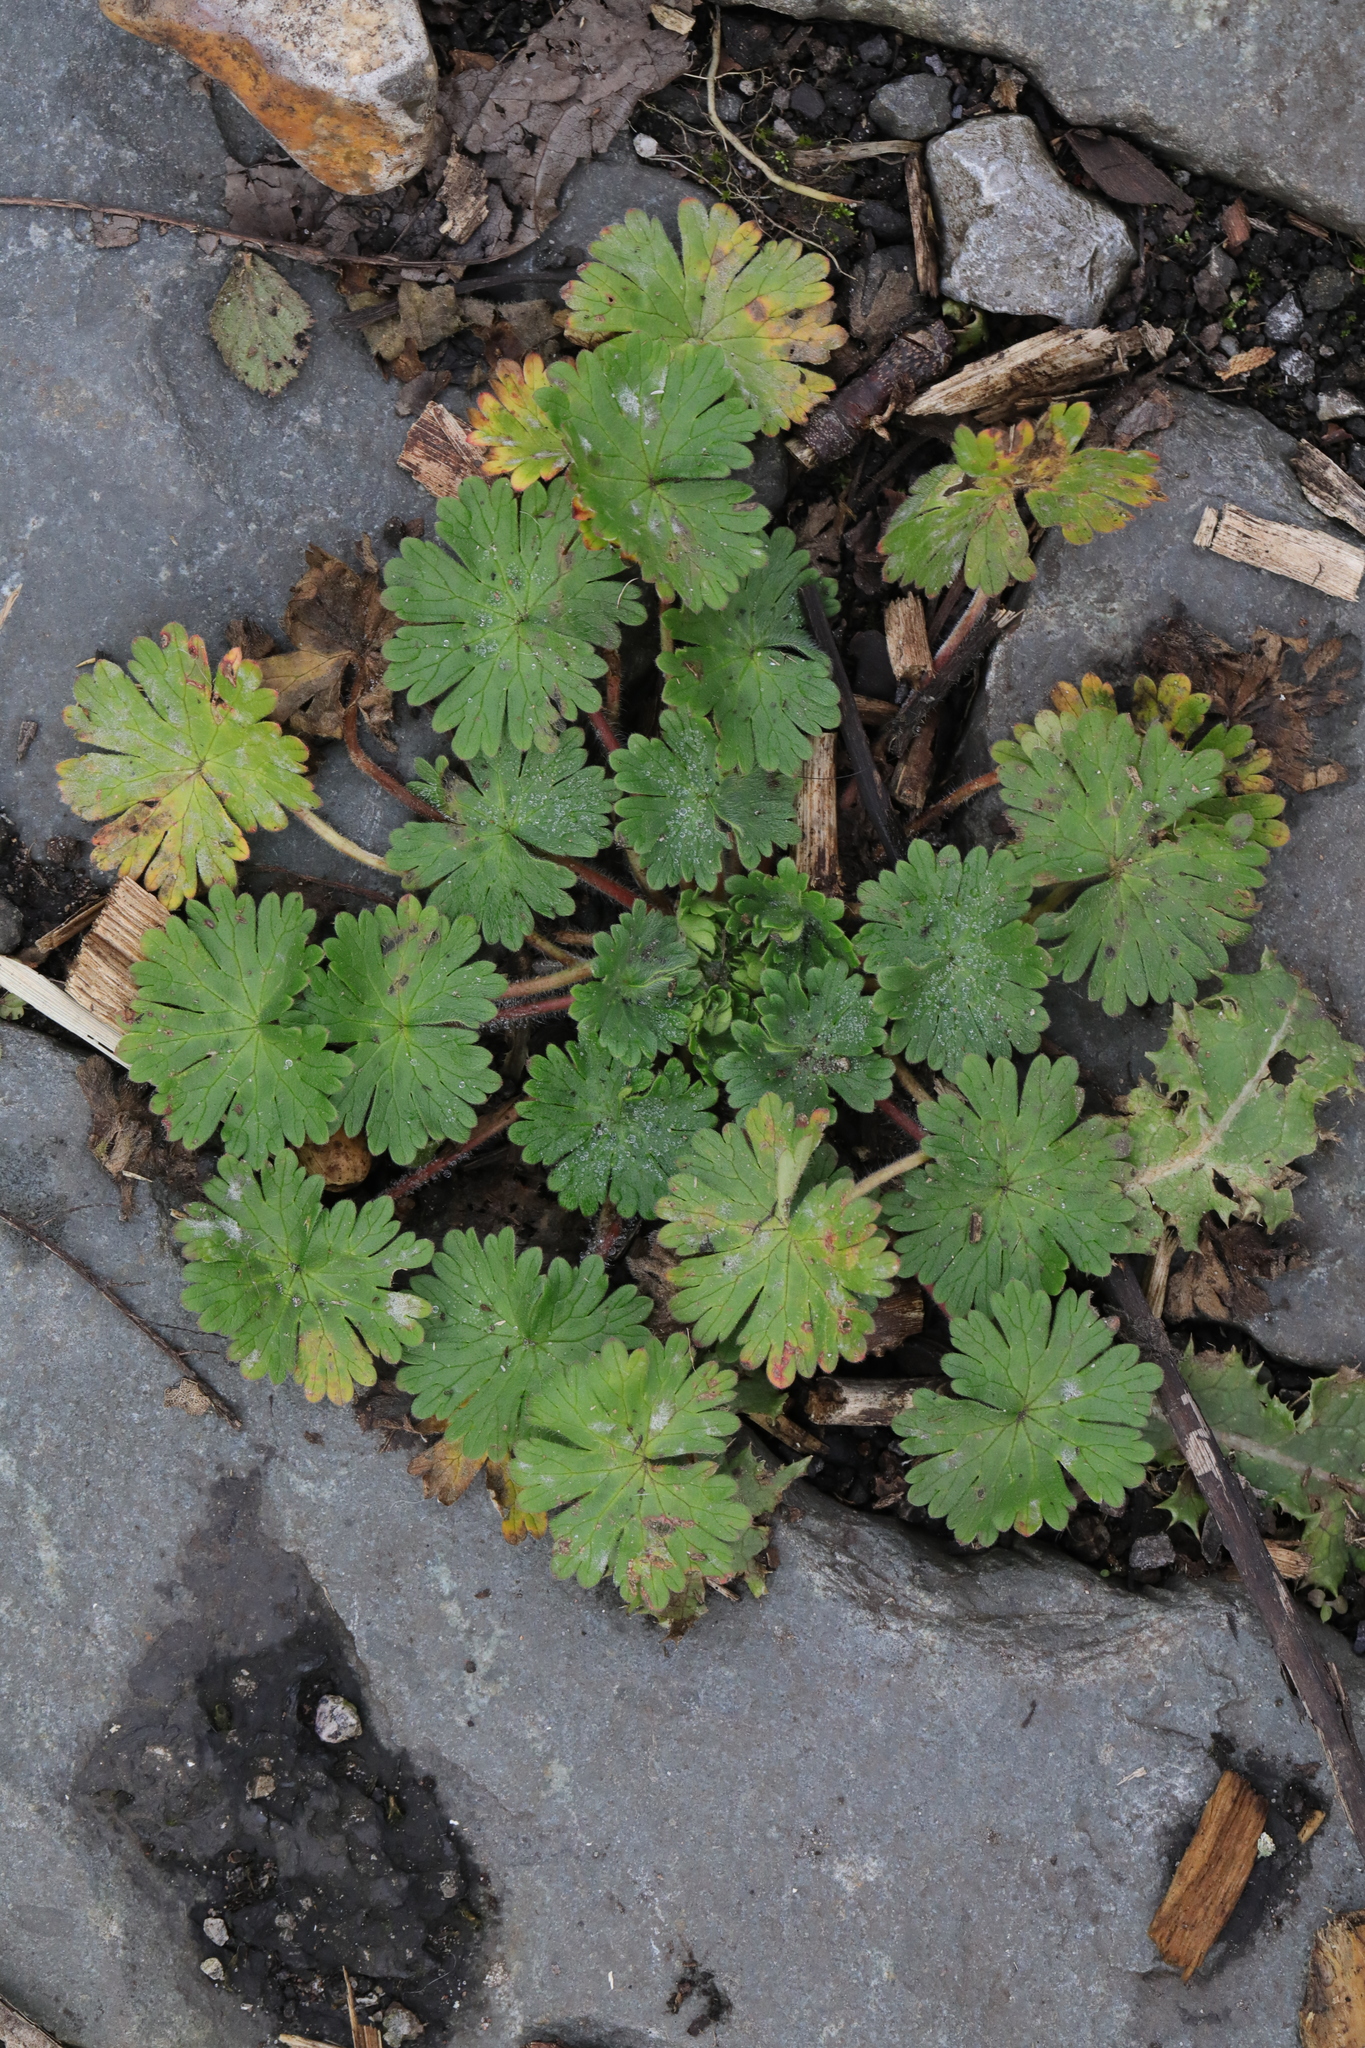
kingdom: Plantae
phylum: Tracheophyta
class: Magnoliopsida
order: Geraniales
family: Geraniaceae
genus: Geranium
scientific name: Geranium molle
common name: Dove's-foot crane's-bill
